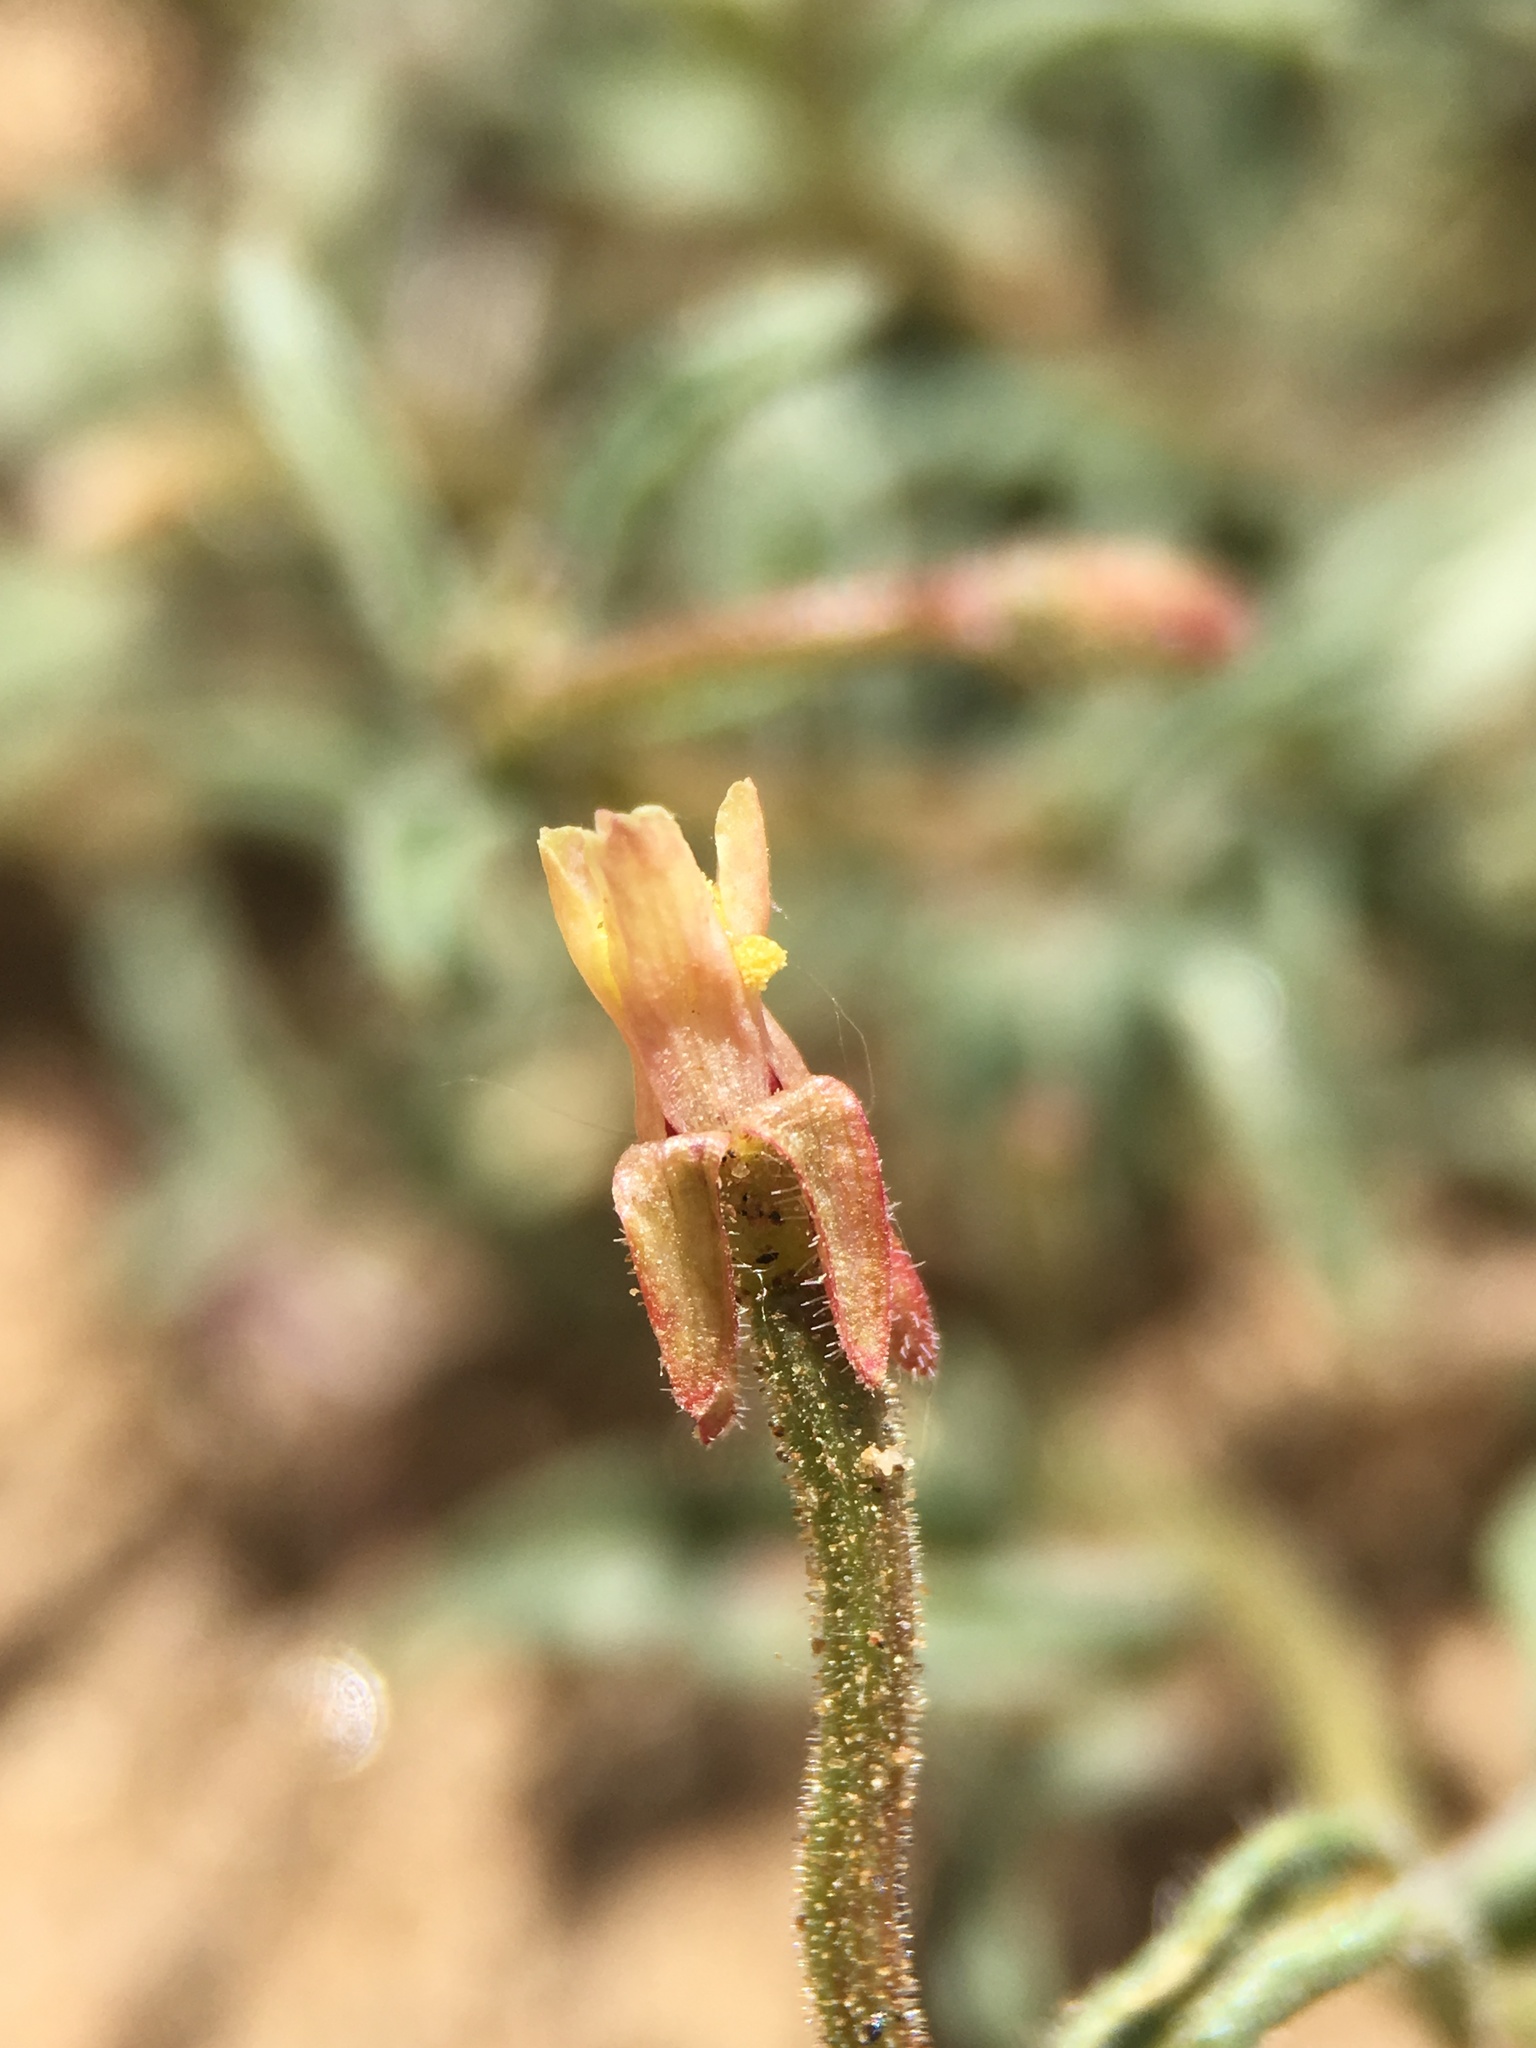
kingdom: Plantae
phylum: Tracheophyta
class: Magnoliopsida
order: Myrtales
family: Onagraceae
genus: Camissonia
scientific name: Camissonia pusilla
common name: Obscure camissonia
